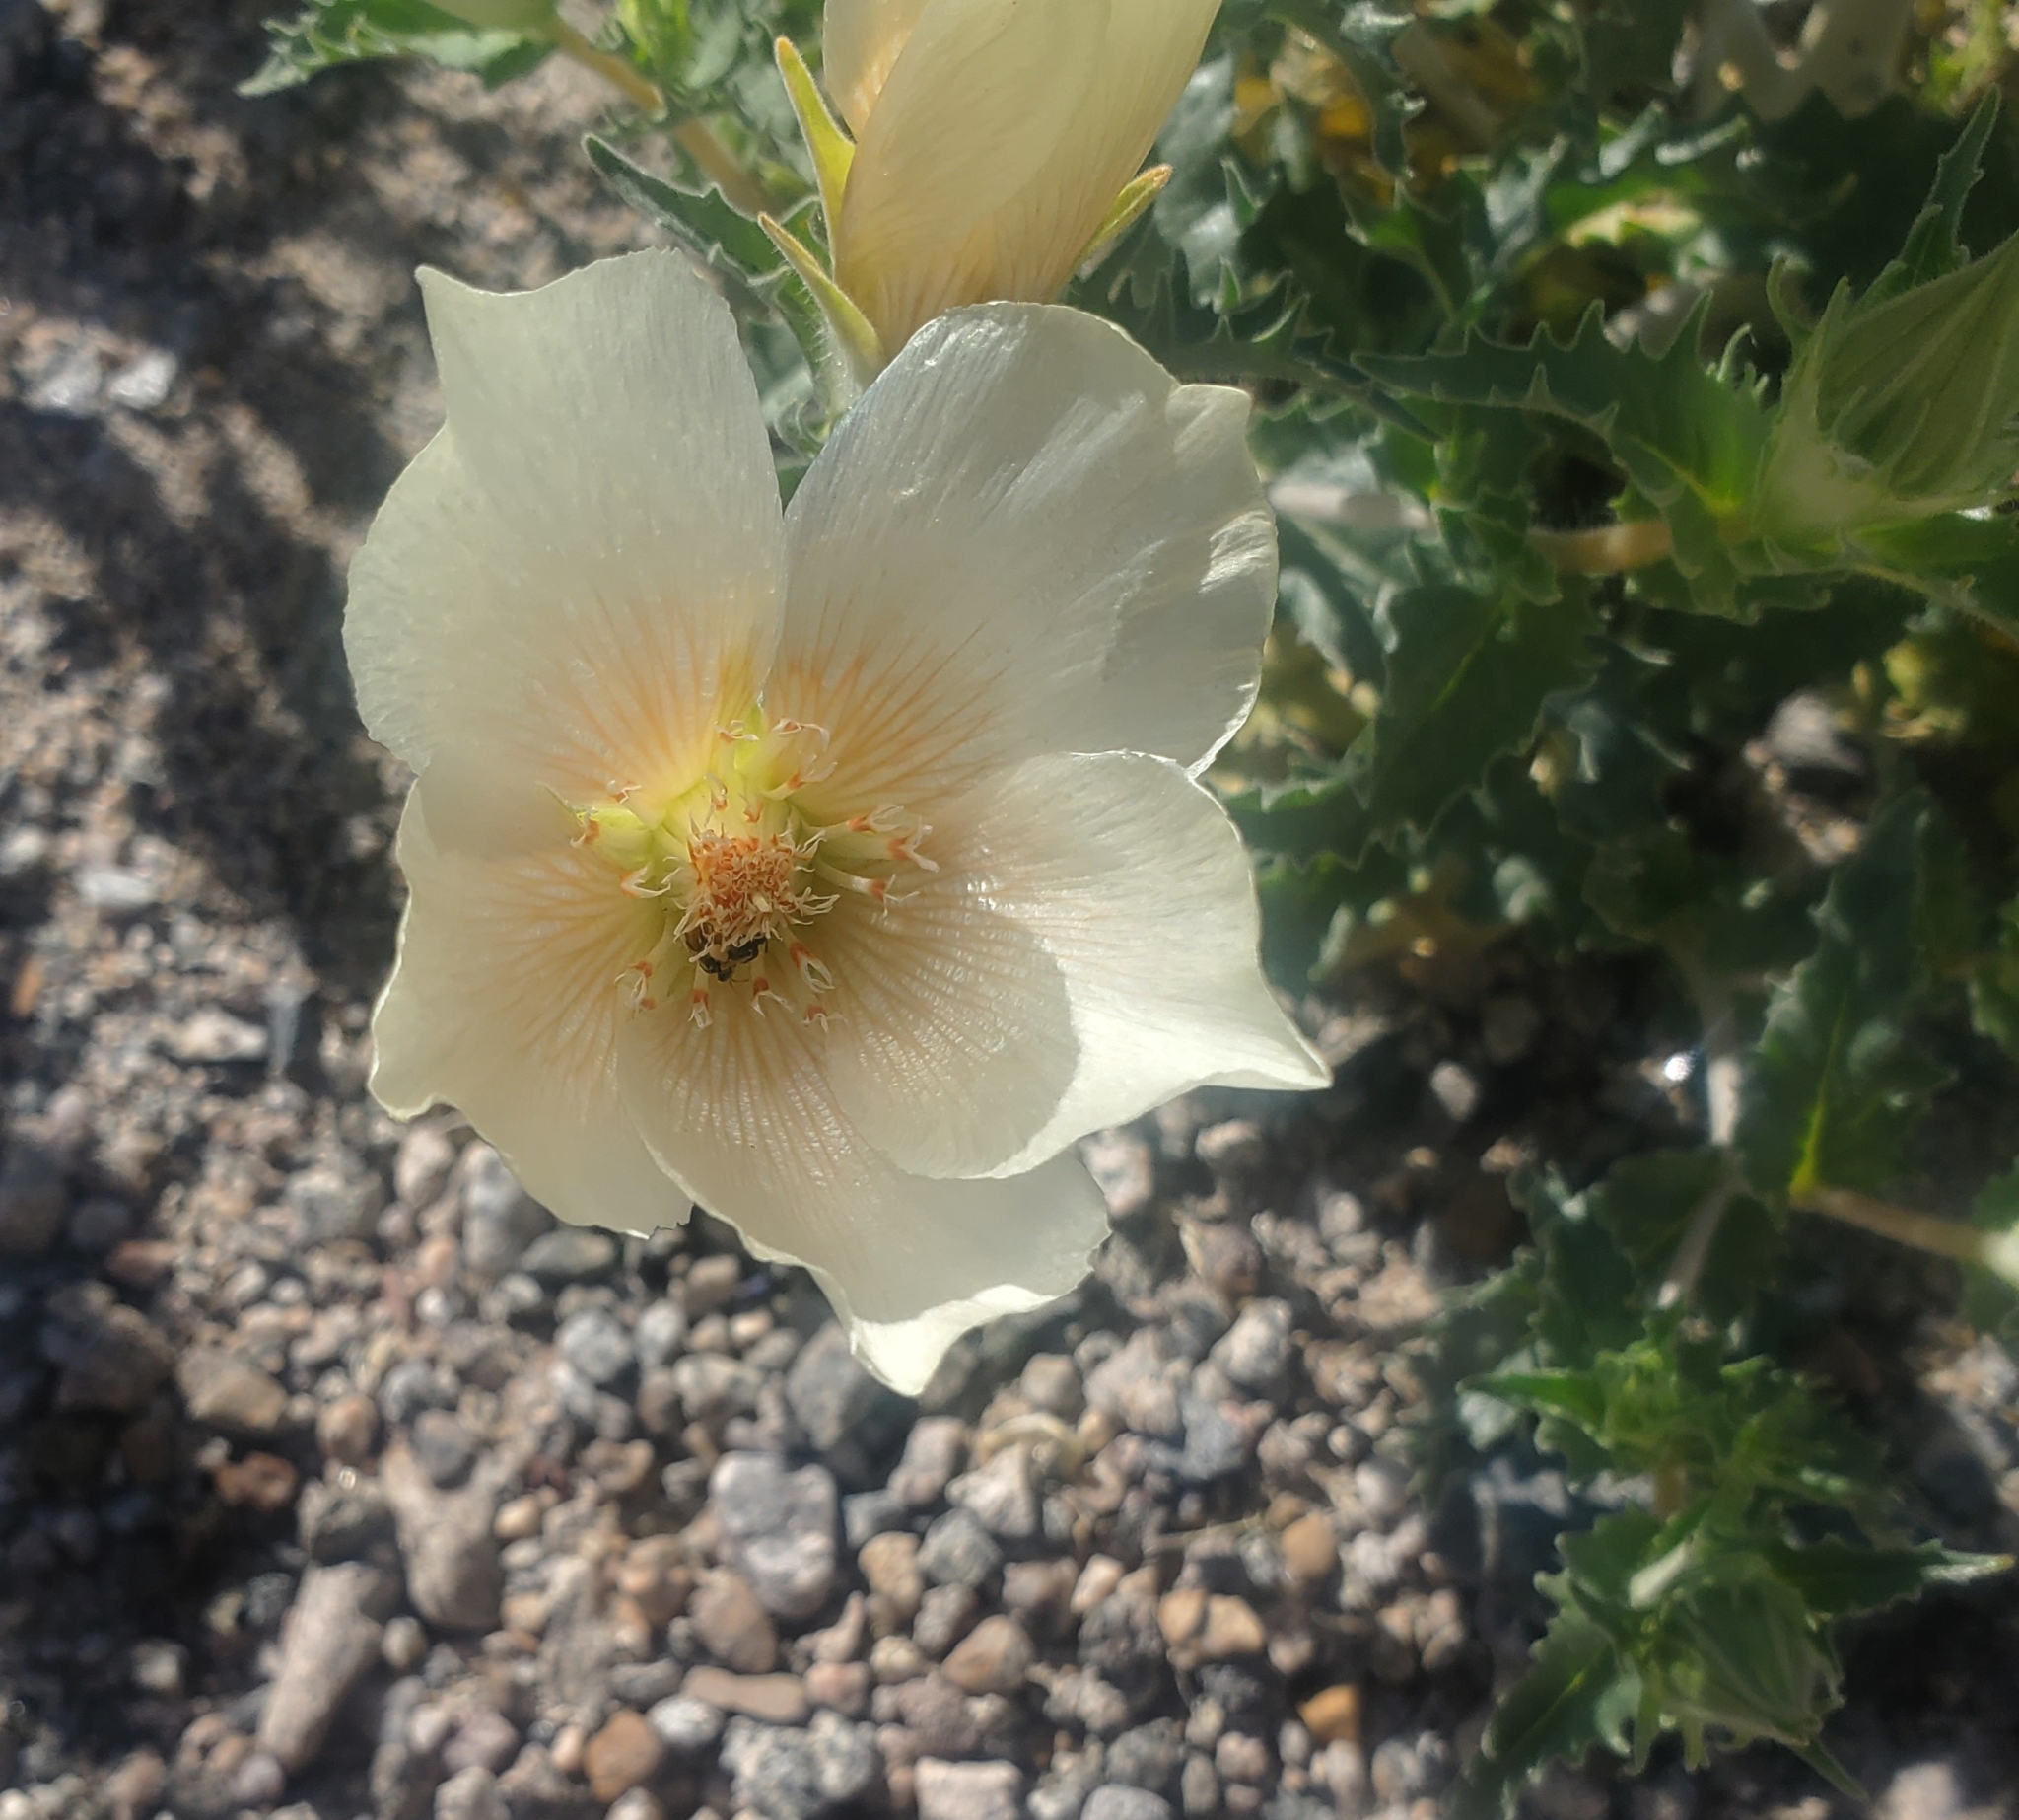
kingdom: Plantae
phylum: Tracheophyta
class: Magnoliopsida
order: Cornales
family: Loasaceae
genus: Mentzelia
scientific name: Mentzelia involucrata
